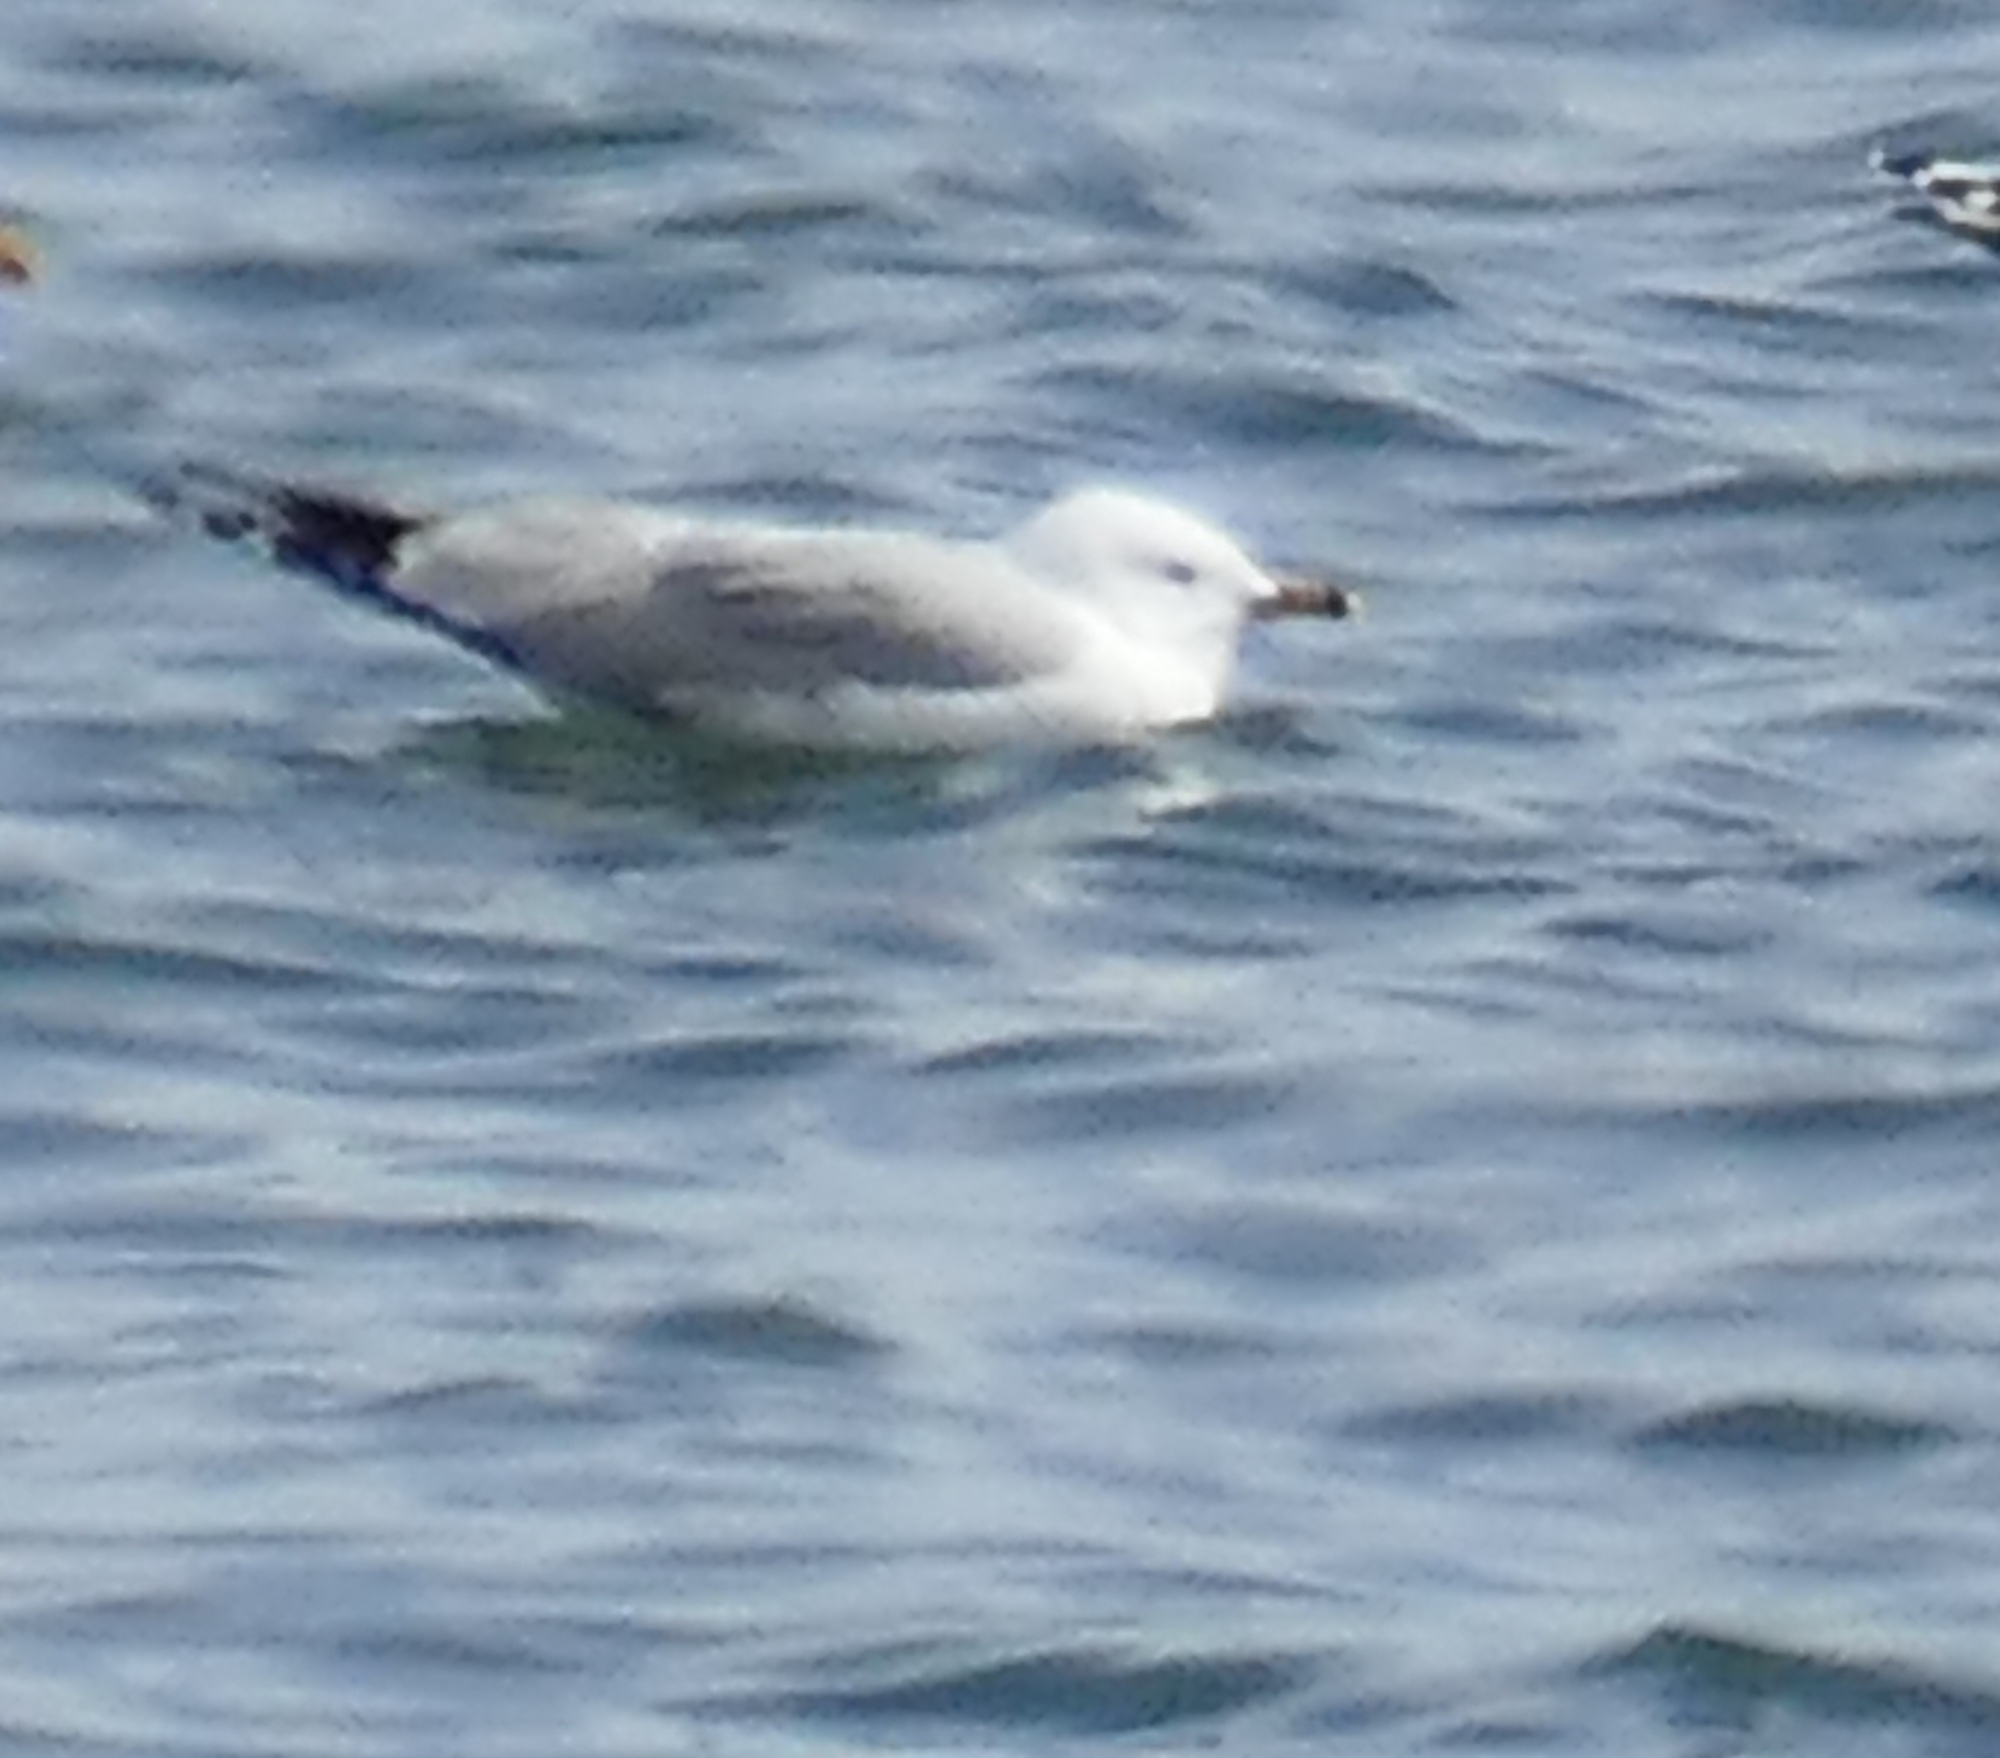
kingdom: Animalia
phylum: Chordata
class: Aves
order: Charadriiformes
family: Laridae
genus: Larus
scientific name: Larus delawarensis
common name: Ring-billed gull
